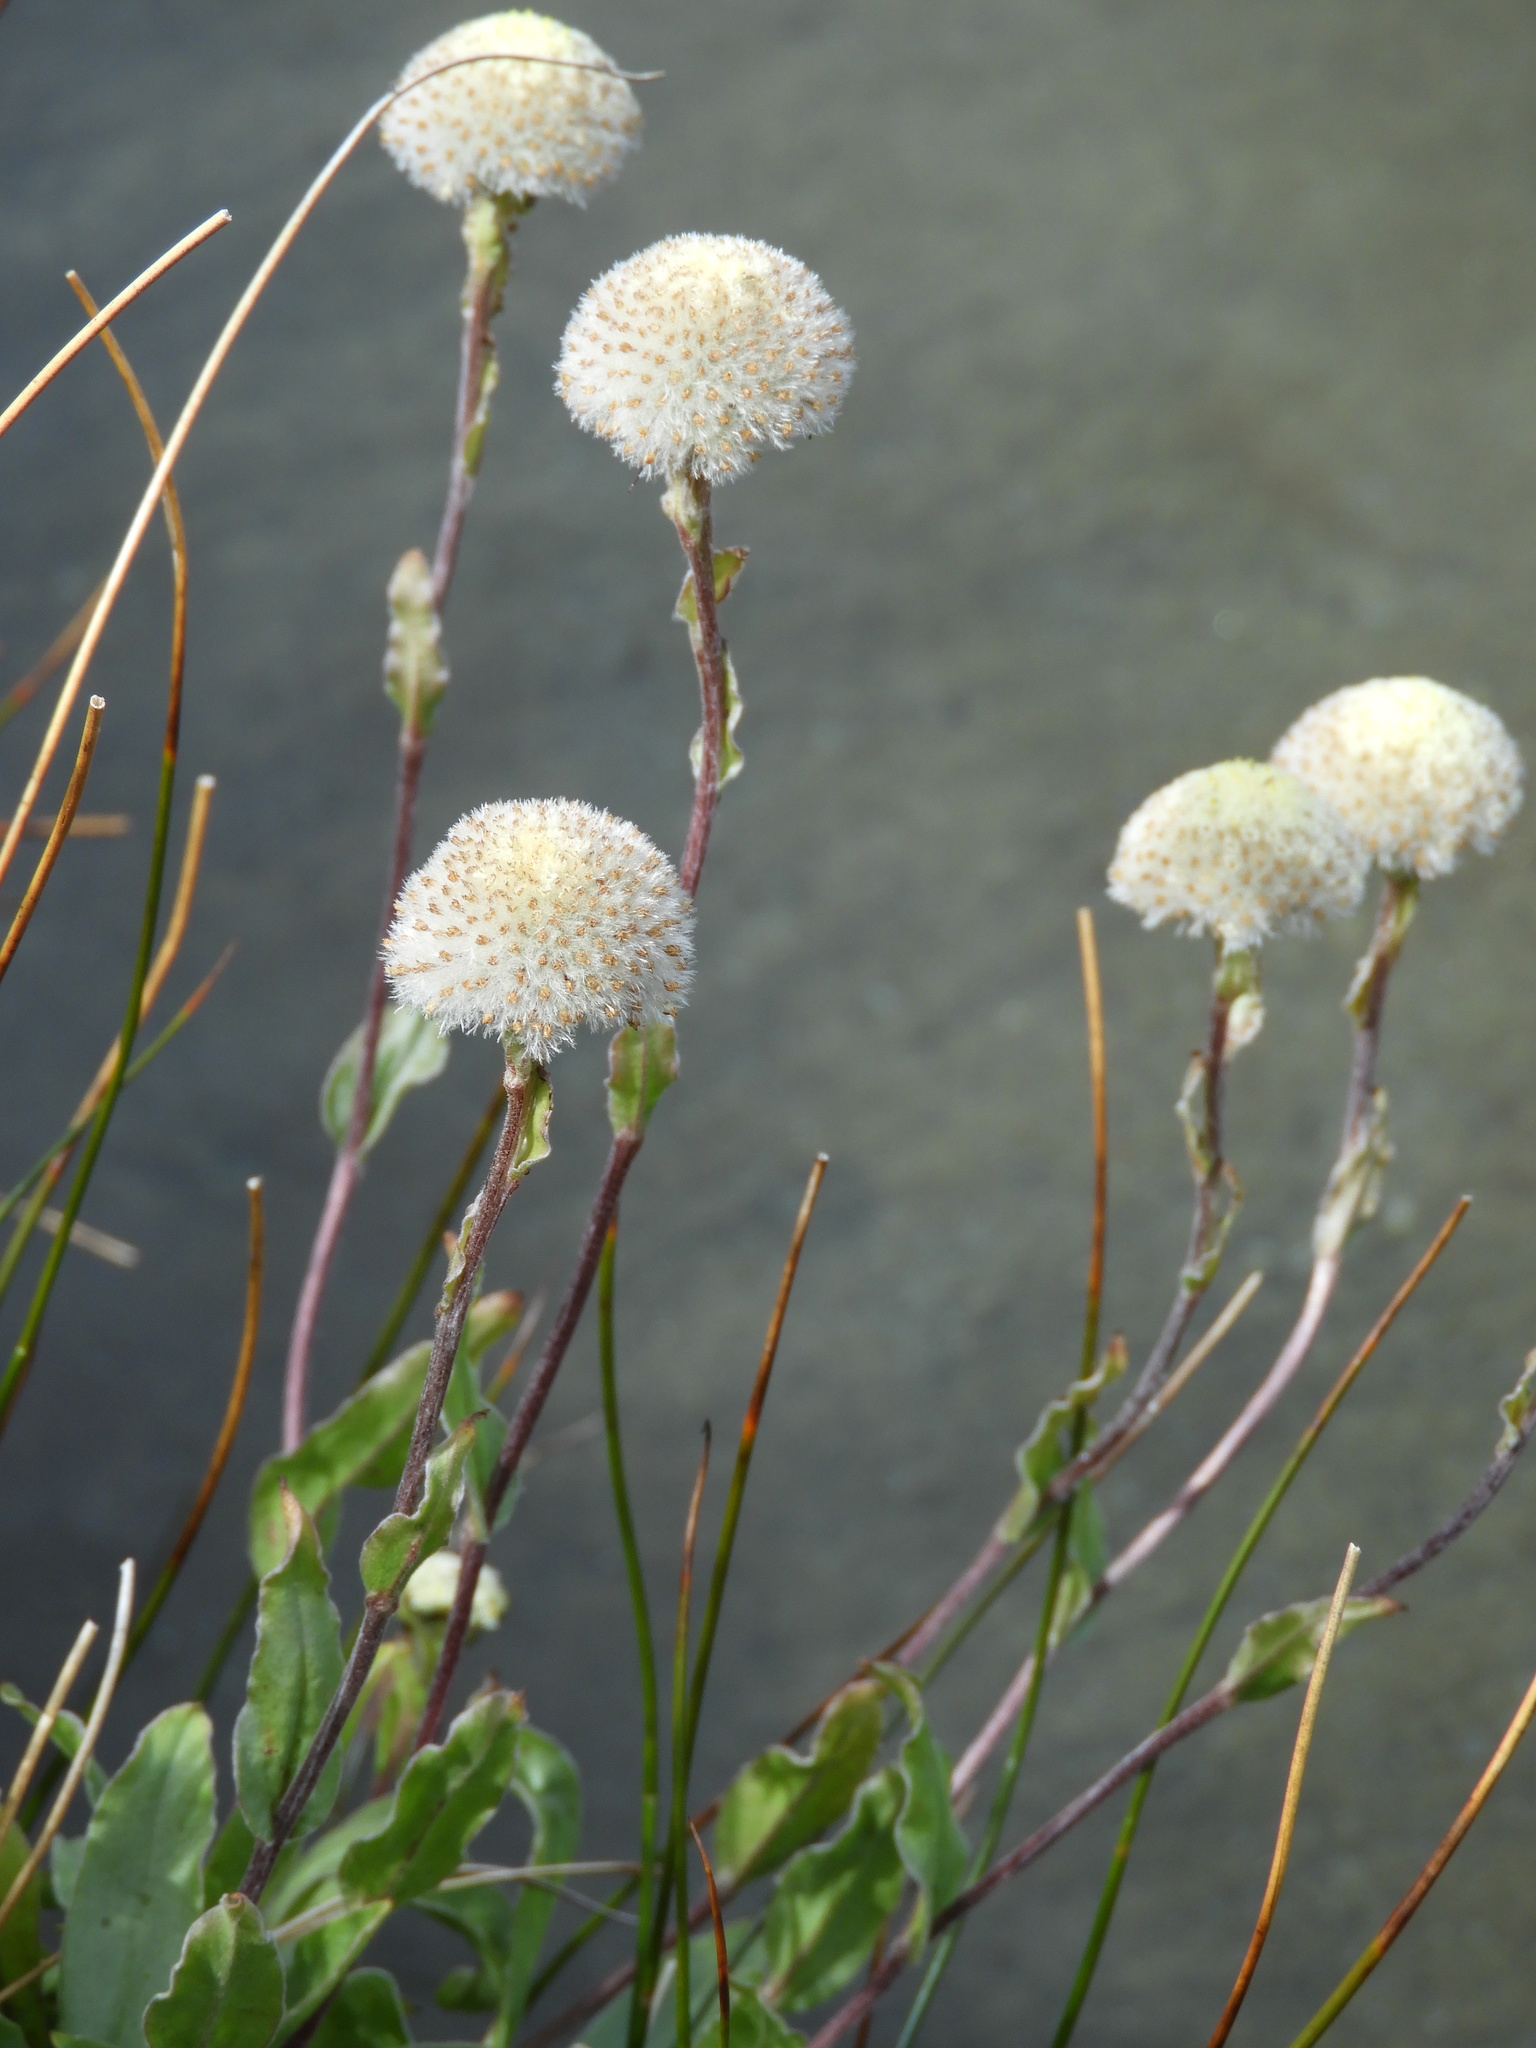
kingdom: Plantae
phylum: Tracheophyta
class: Magnoliopsida
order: Asterales
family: Asteraceae
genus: Craspedia
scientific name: Craspedia uniflora
